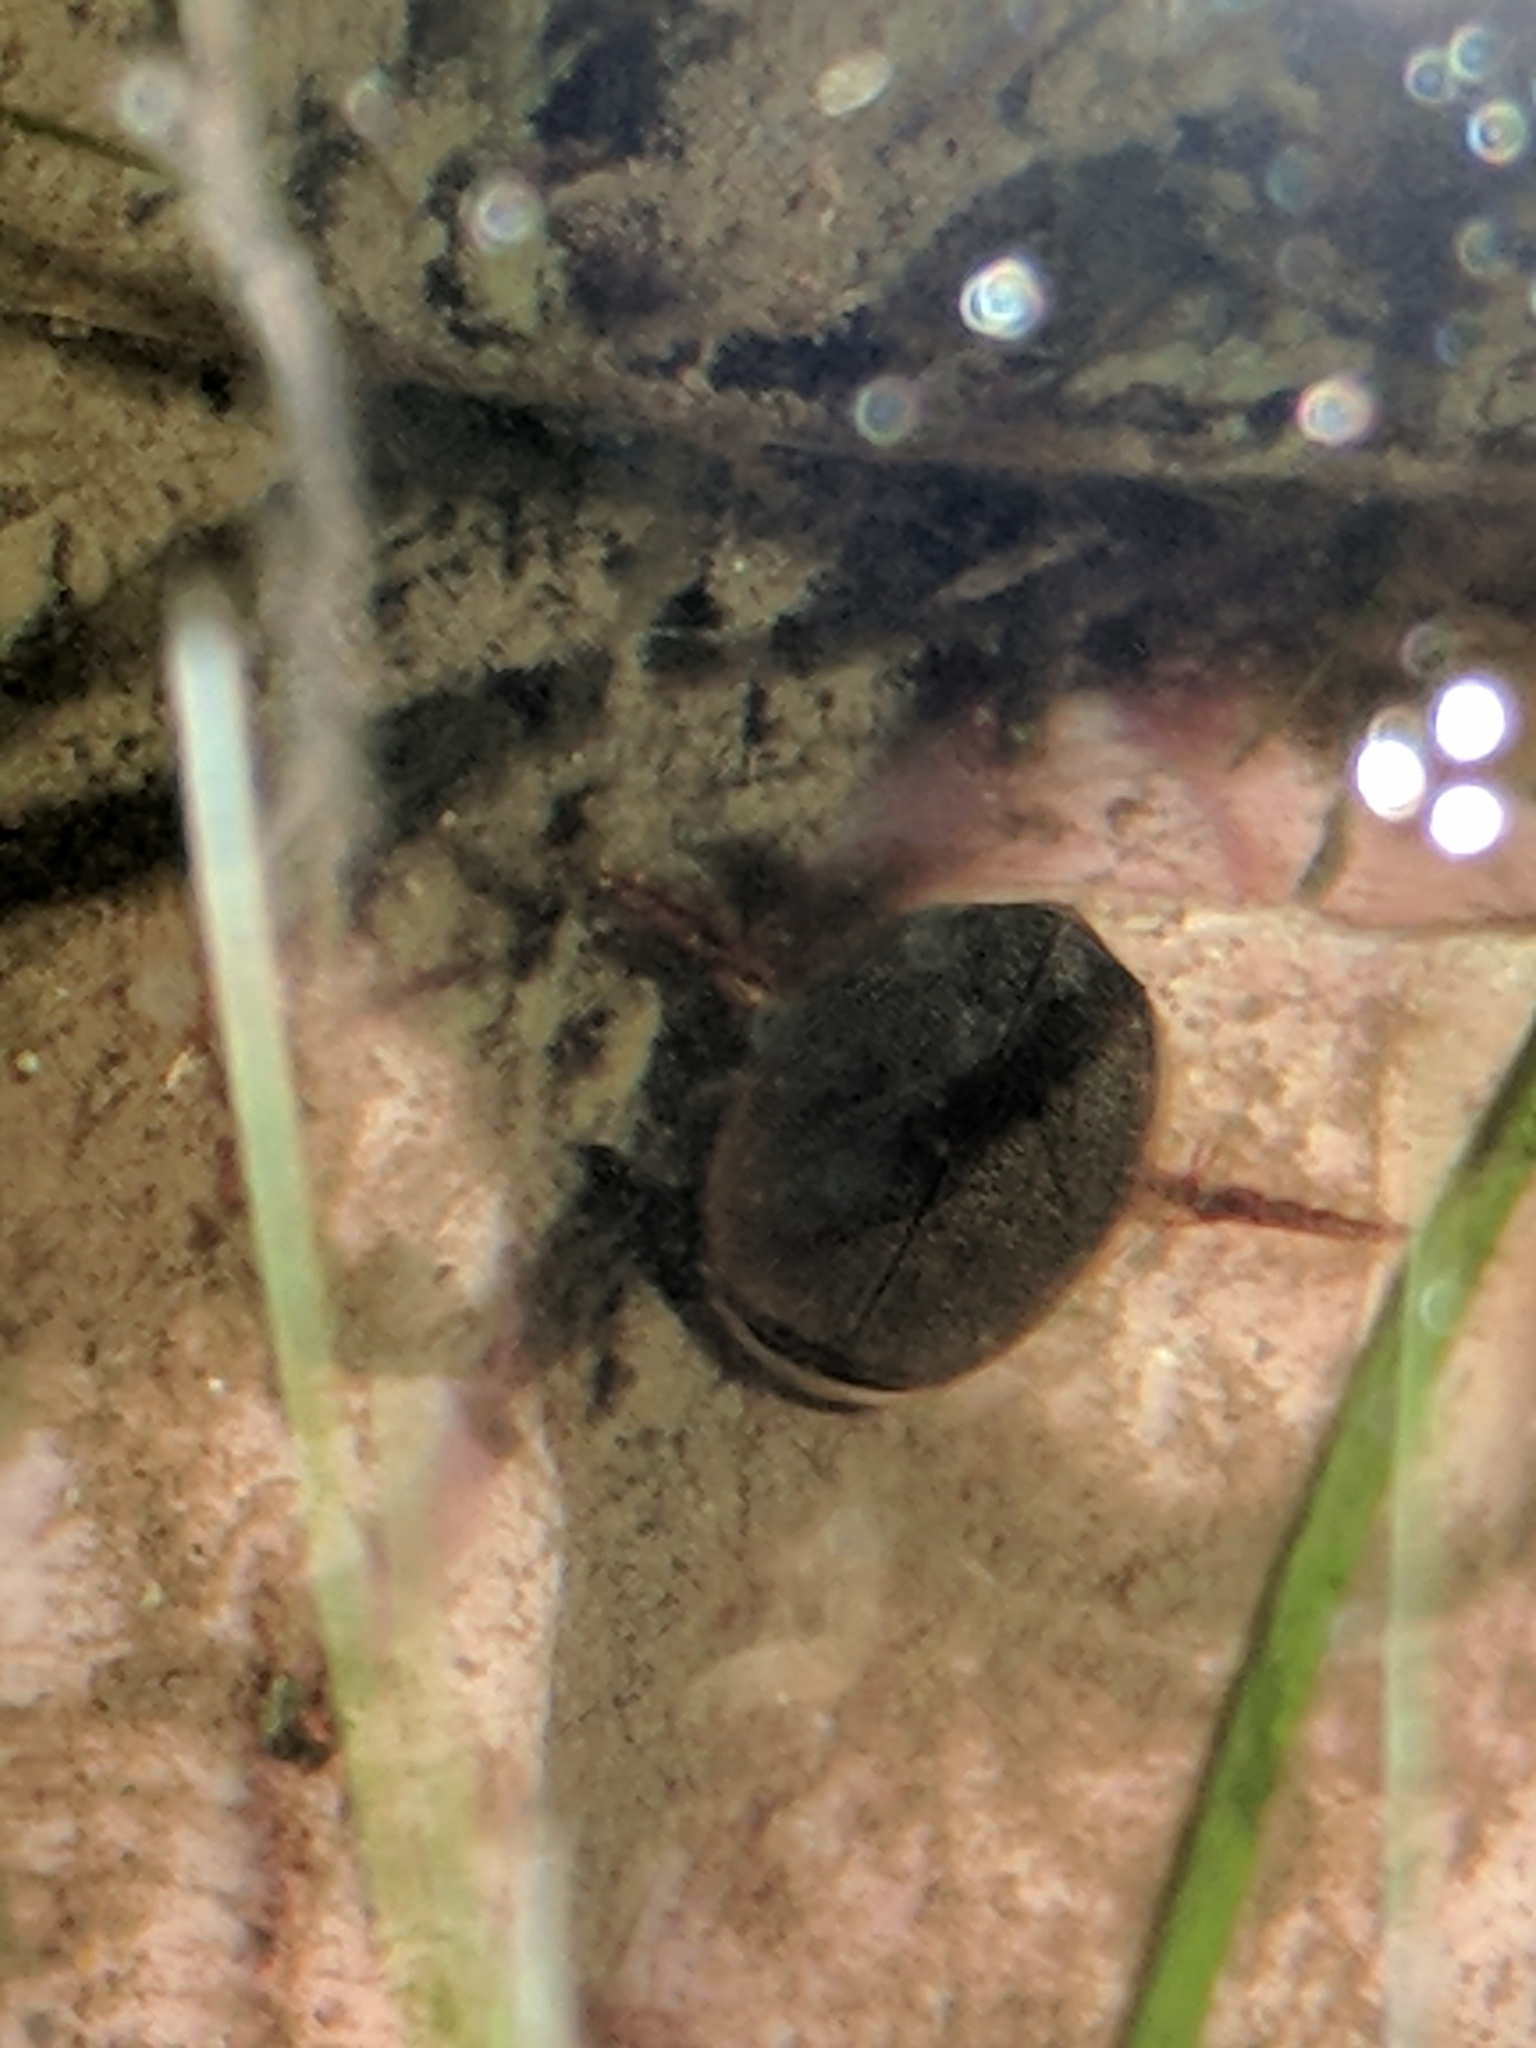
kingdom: Animalia
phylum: Arthropoda
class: Insecta
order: Coleoptera
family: Dytiscidae
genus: Graphoderus
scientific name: Graphoderus
